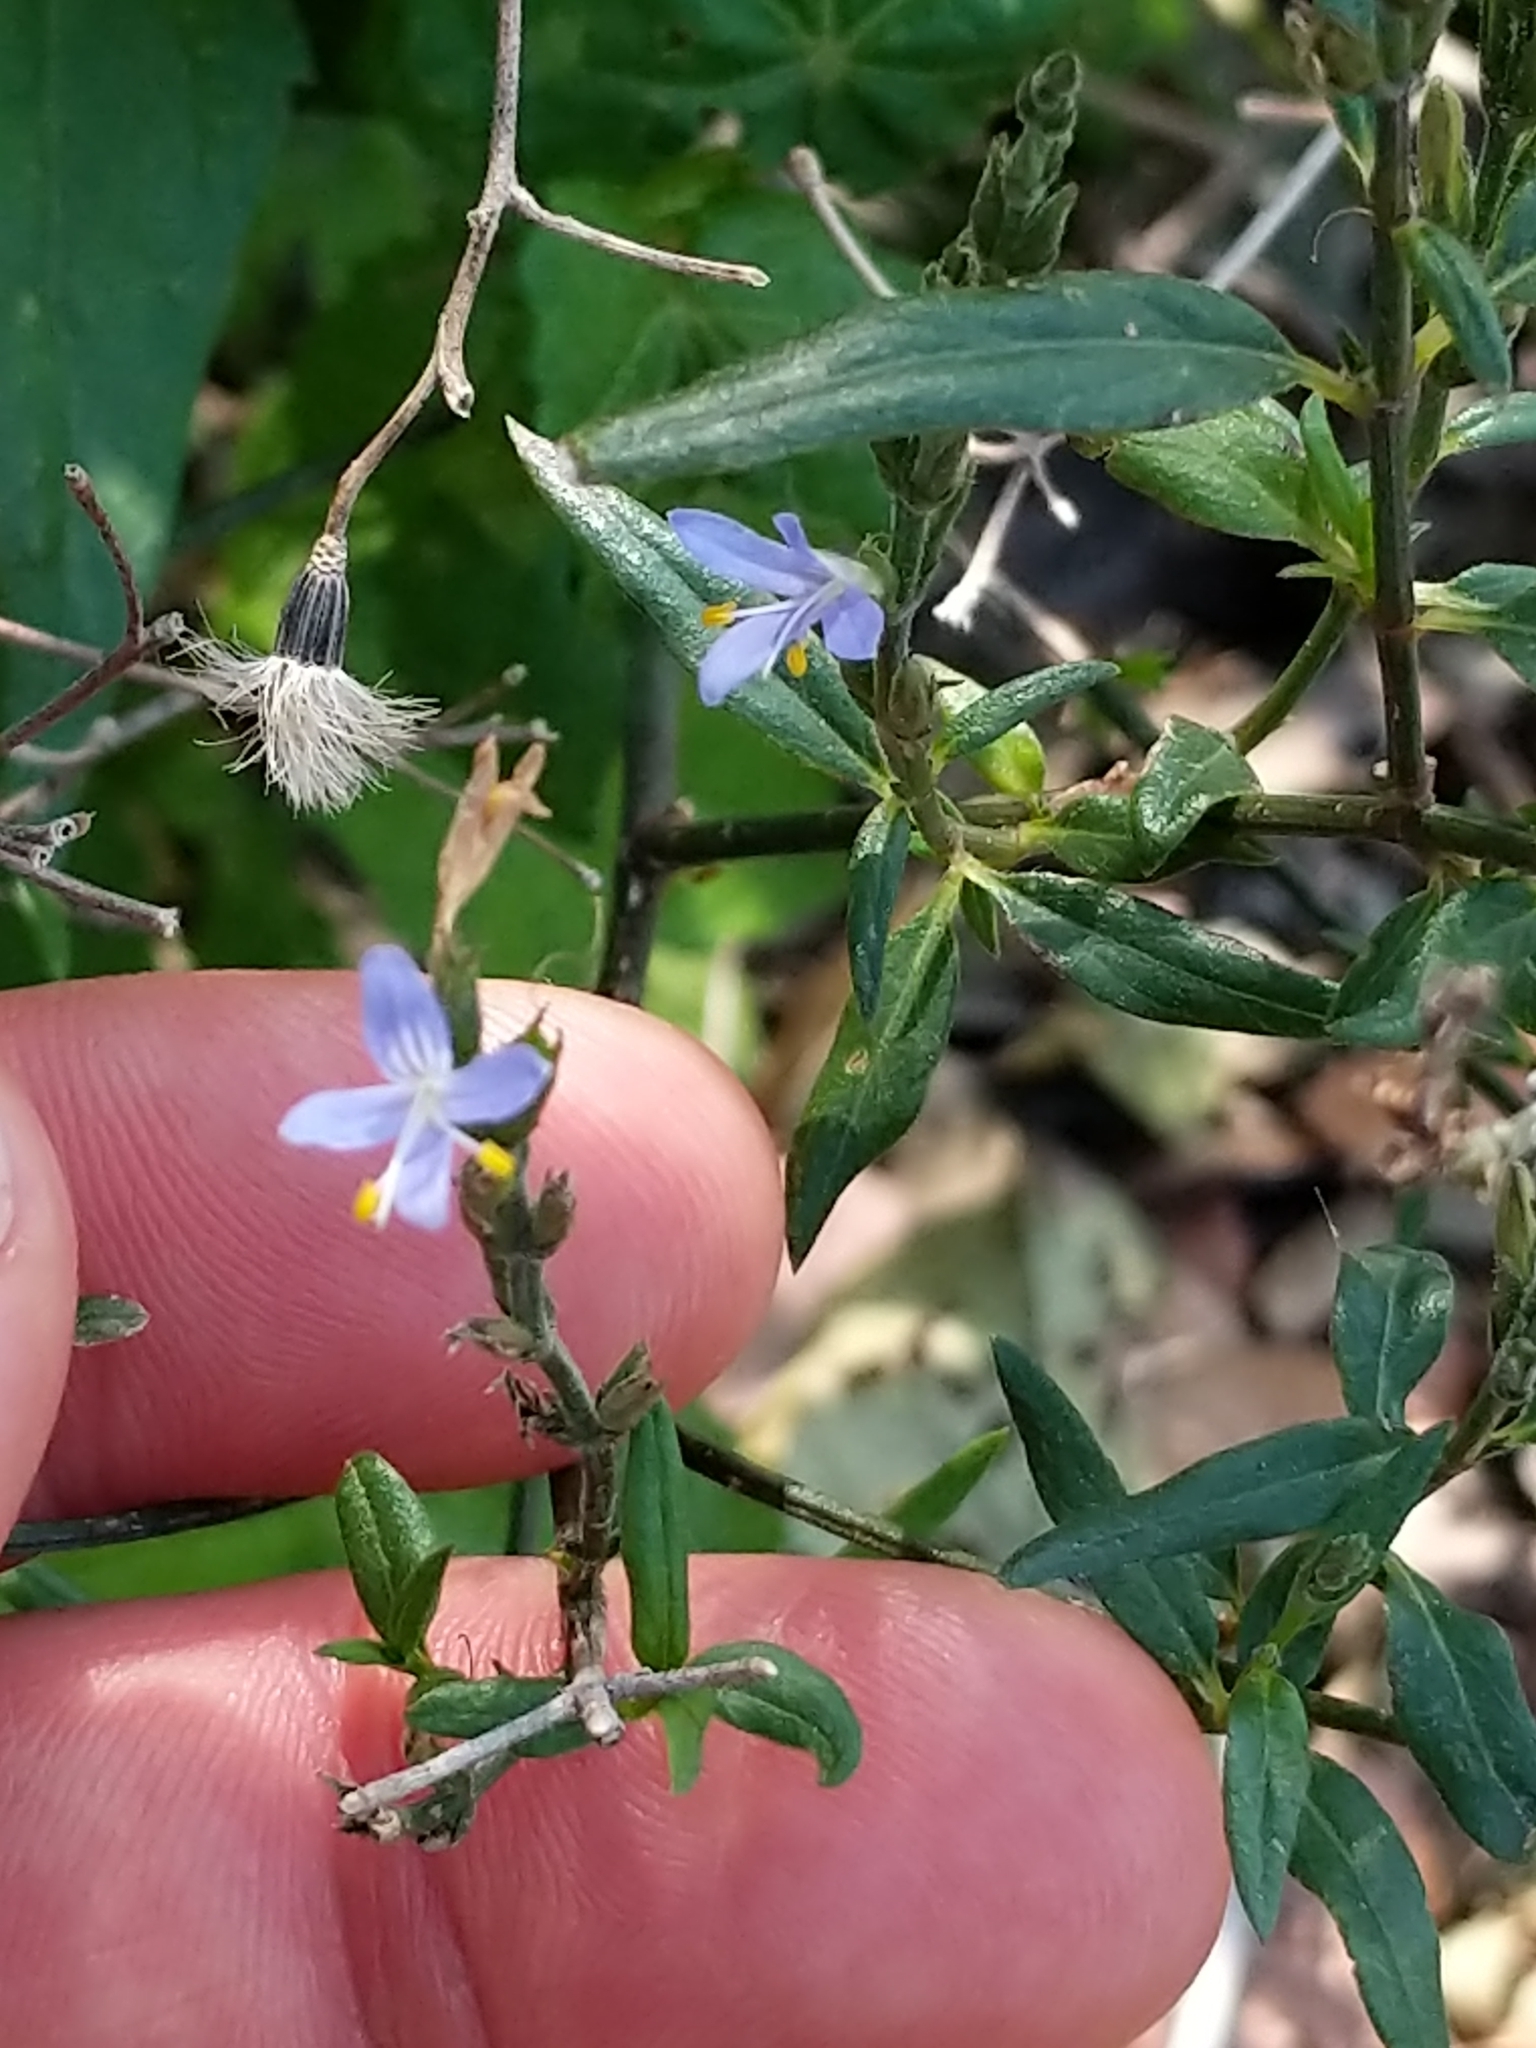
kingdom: Plantae
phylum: Tracheophyta
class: Magnoliopsida
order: Lamiales
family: Acanthaceae
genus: Carlowrightia
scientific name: Carlowrightia parviflora
